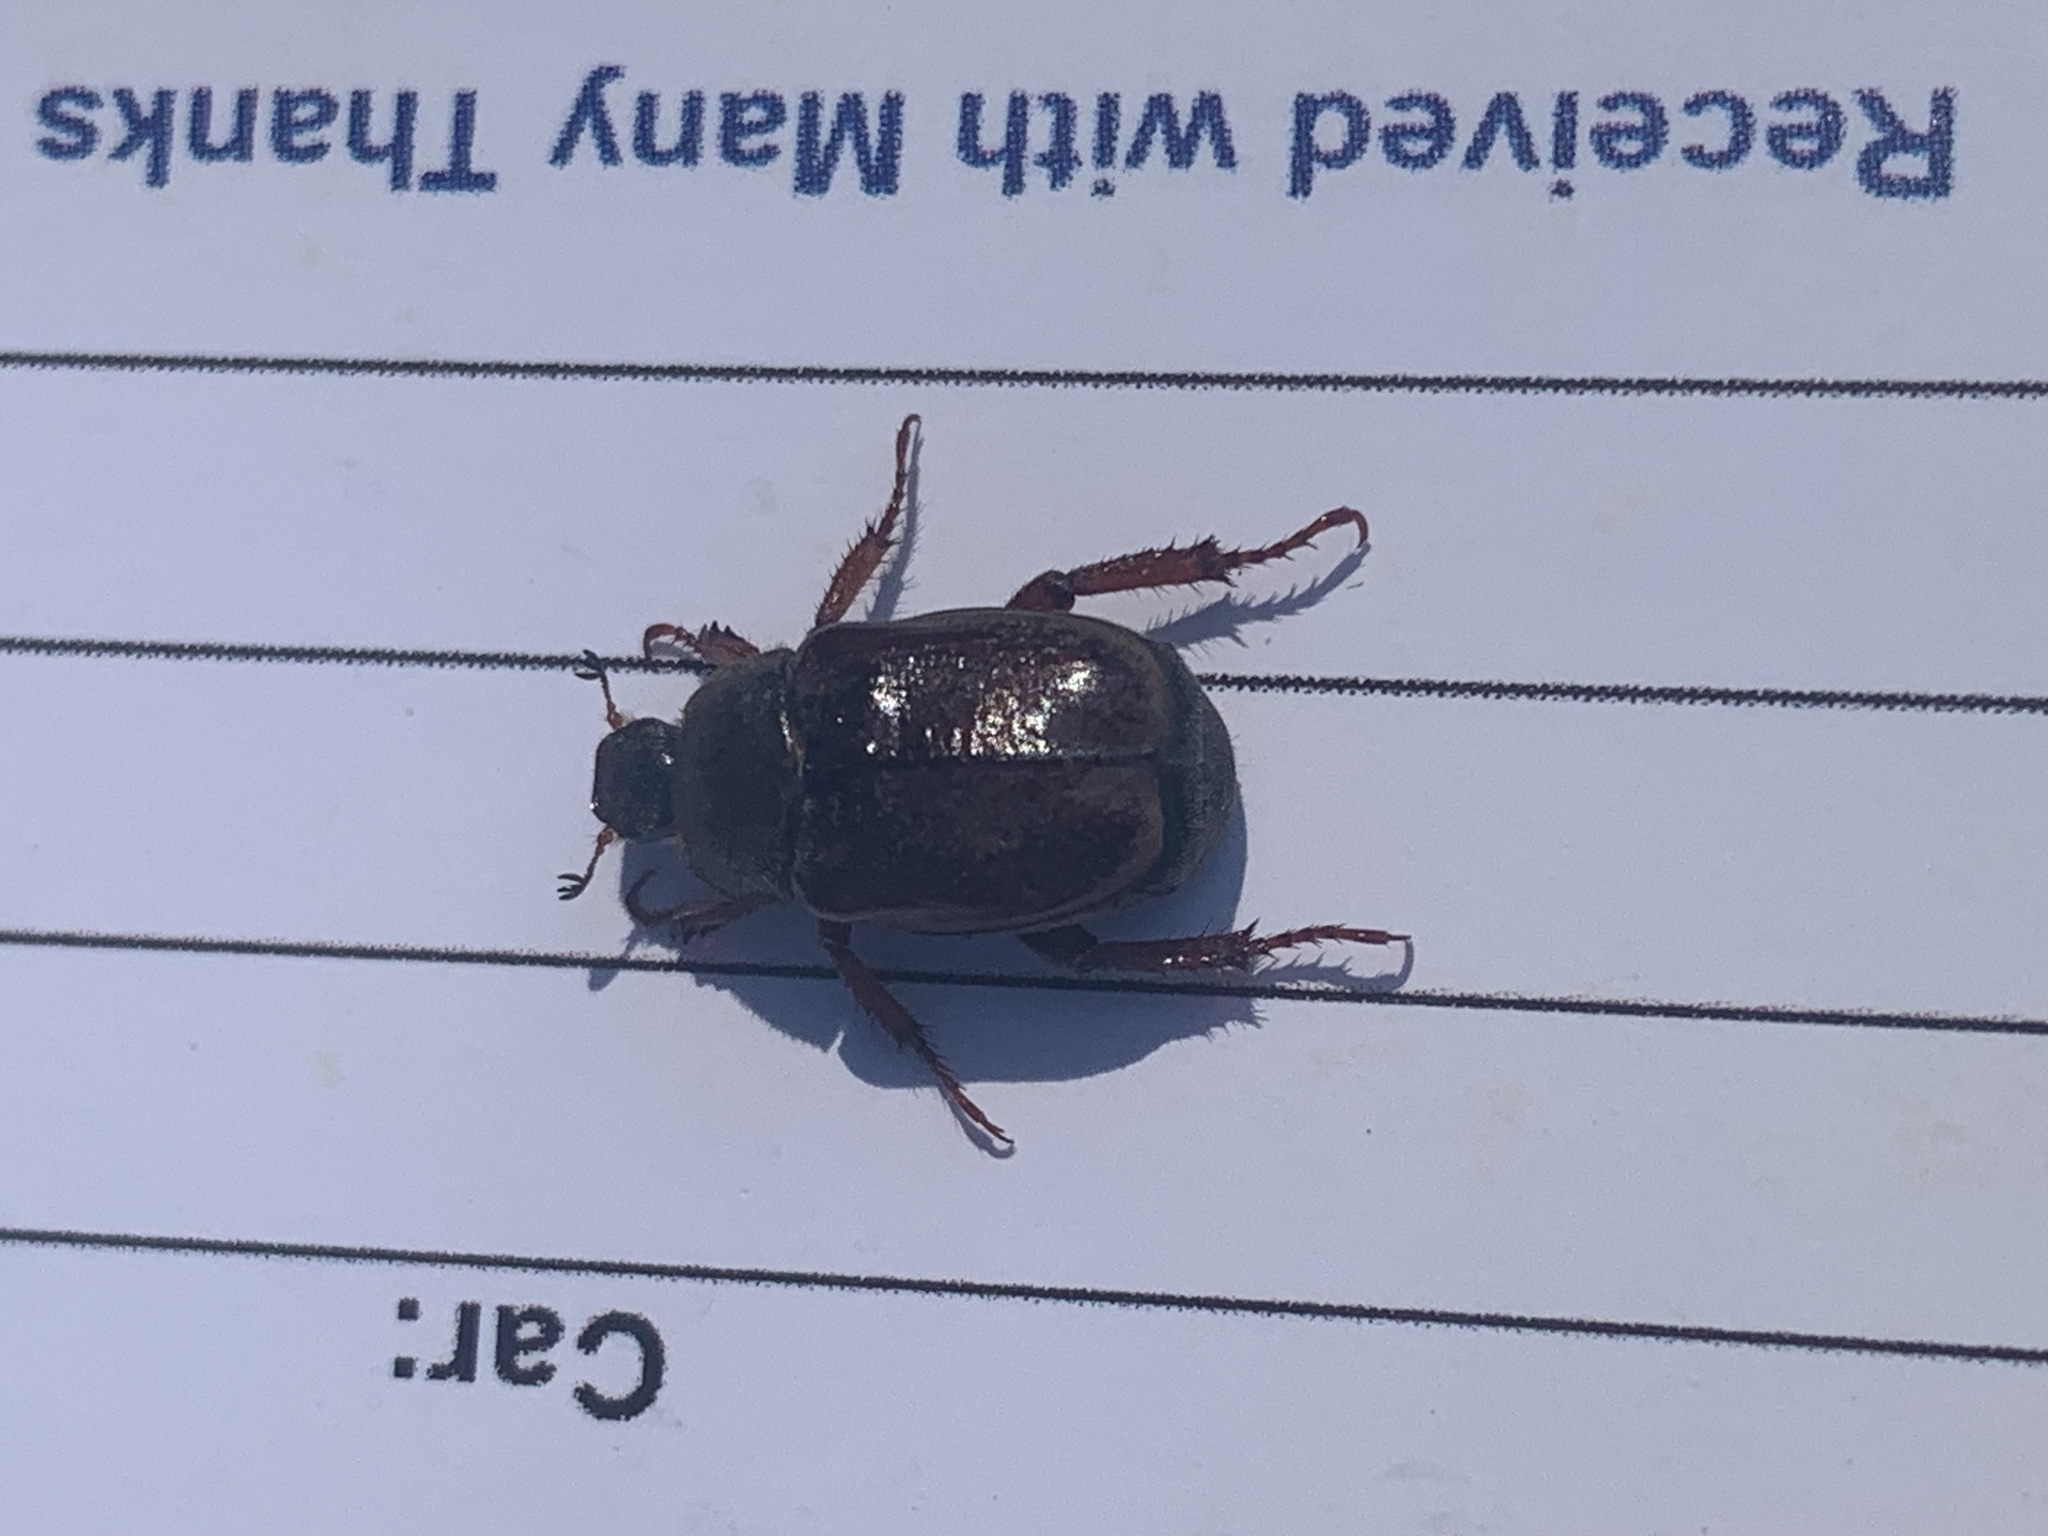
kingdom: Animalia
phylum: Arthropoda
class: Insecta
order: Coleoptera
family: Scarabaeidae
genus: Hoplia
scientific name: Hoplia philanthus
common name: Welsh chafer
